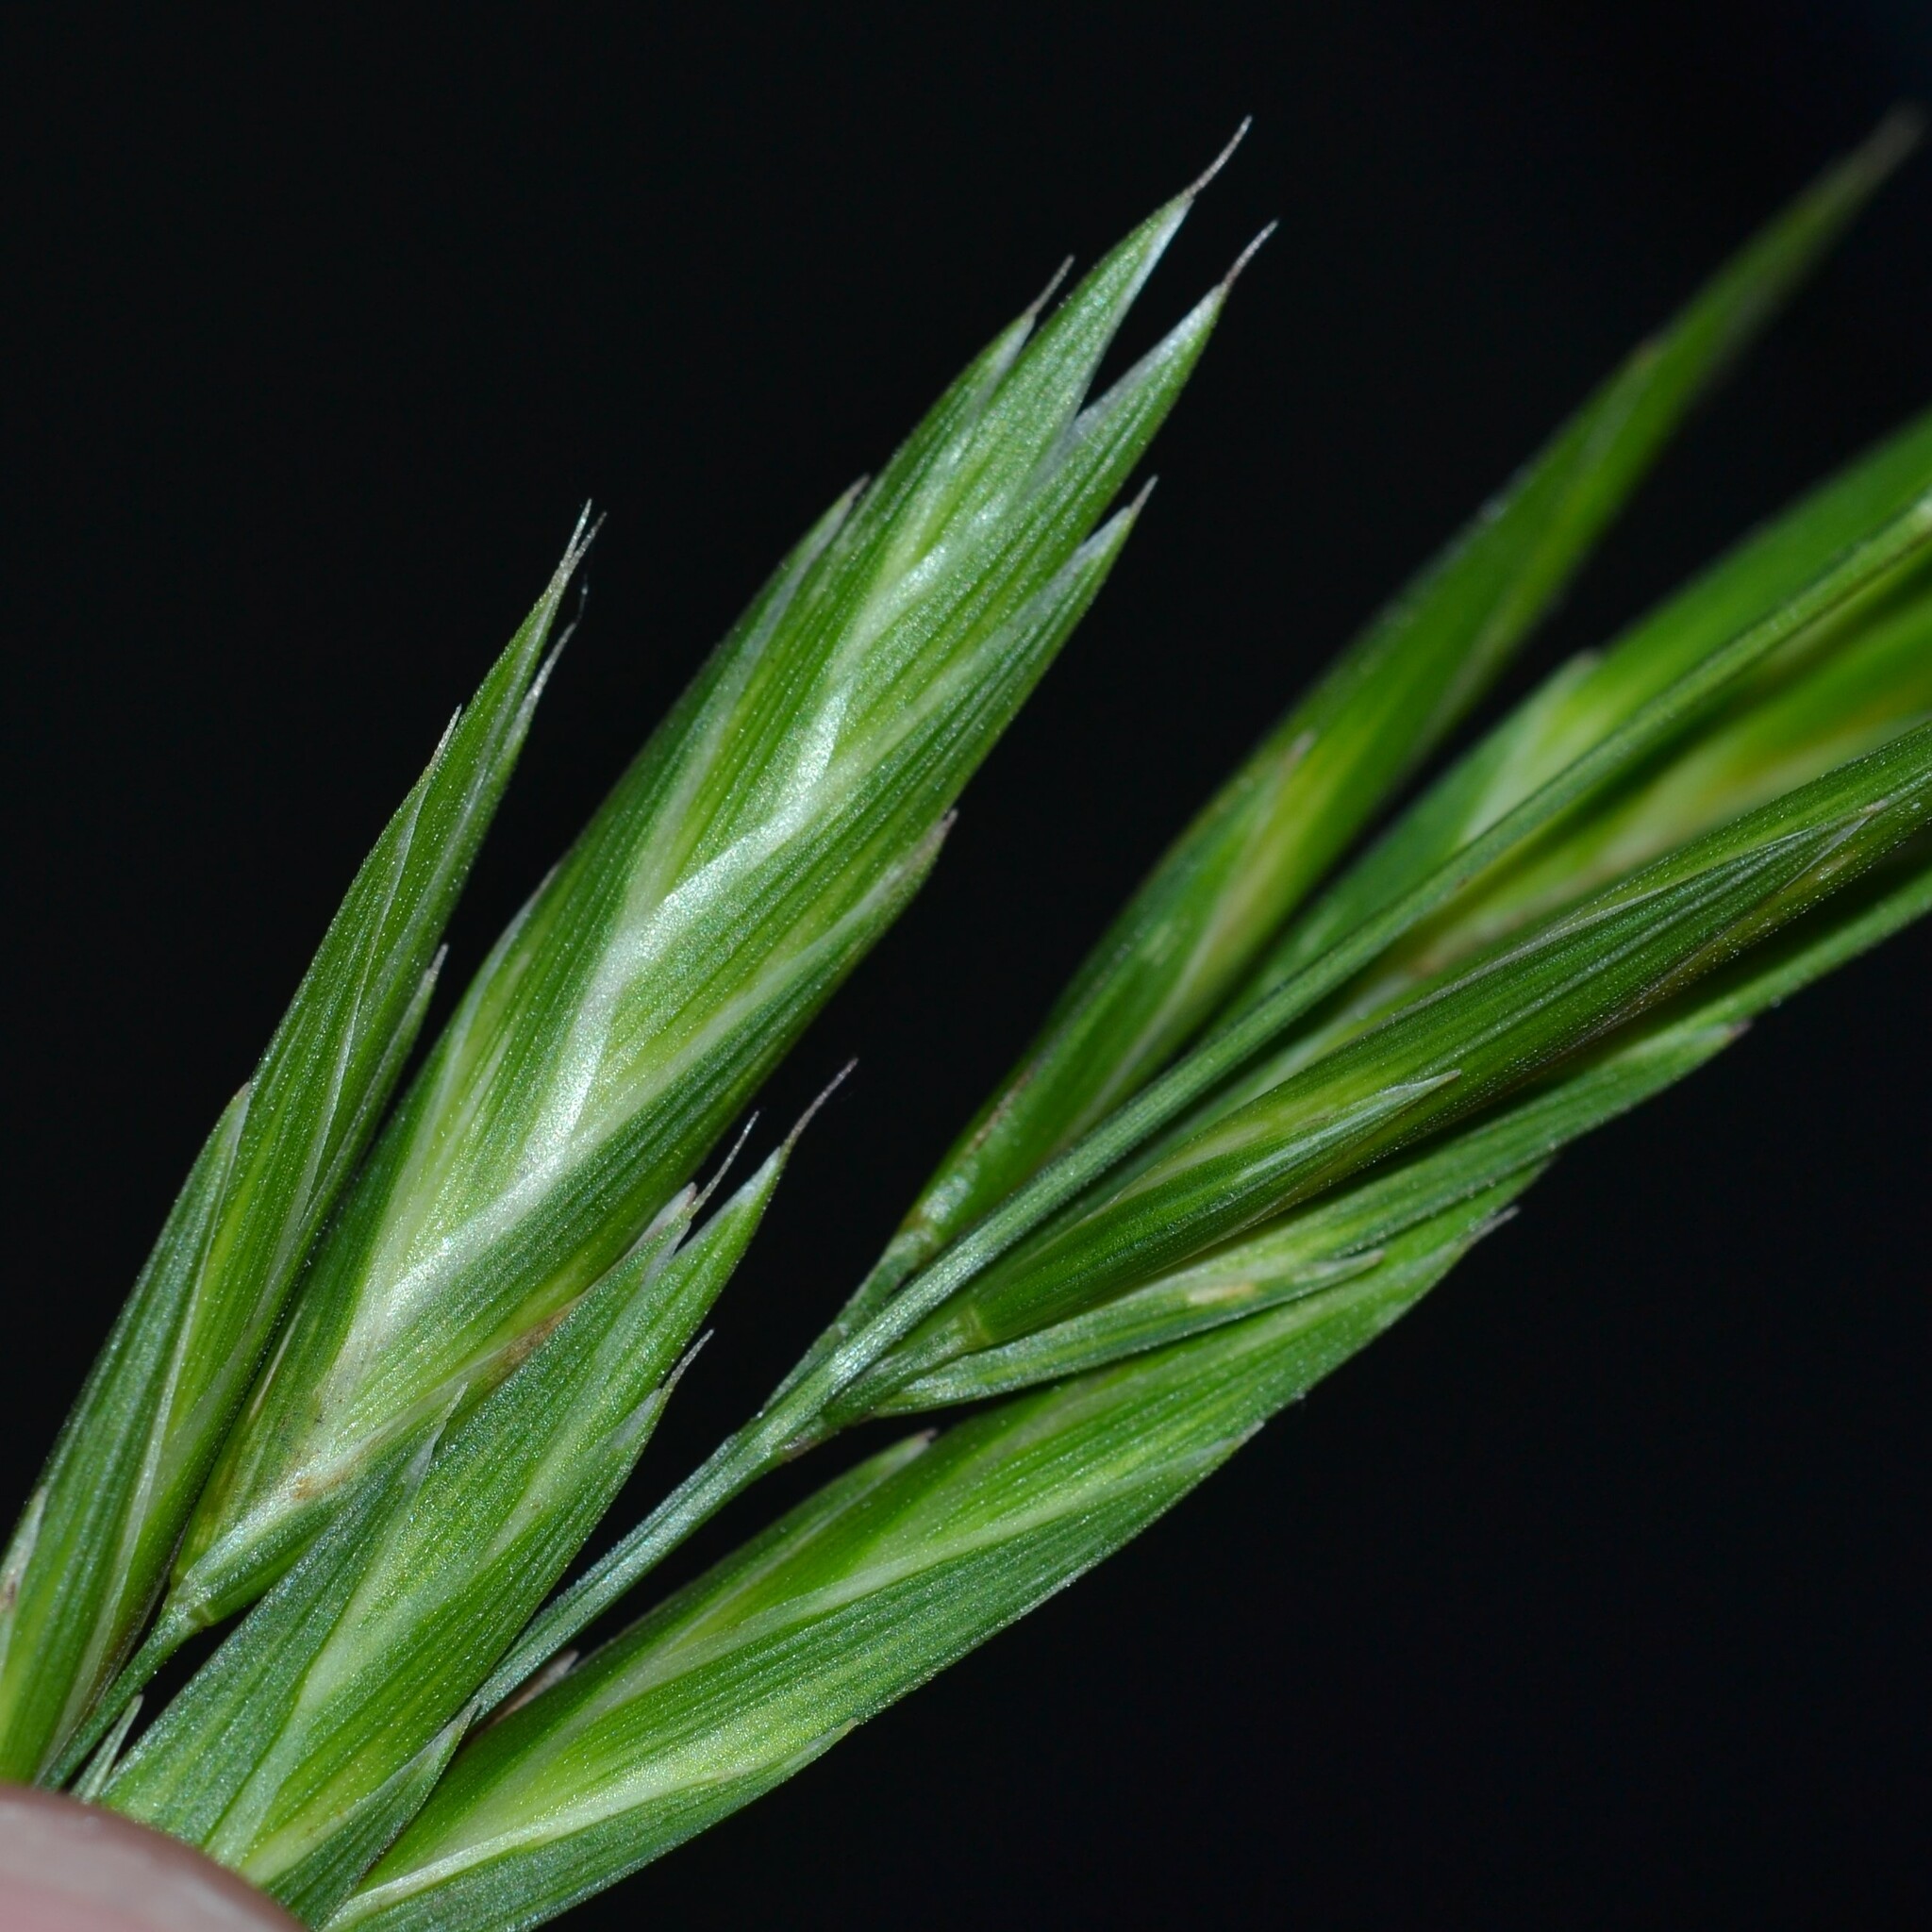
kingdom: Plantae
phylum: Tracheophyta
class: Liliopsida
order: Poales
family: Poaceae
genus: Bromus
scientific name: Bromus catharticus
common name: Rescuegrass
